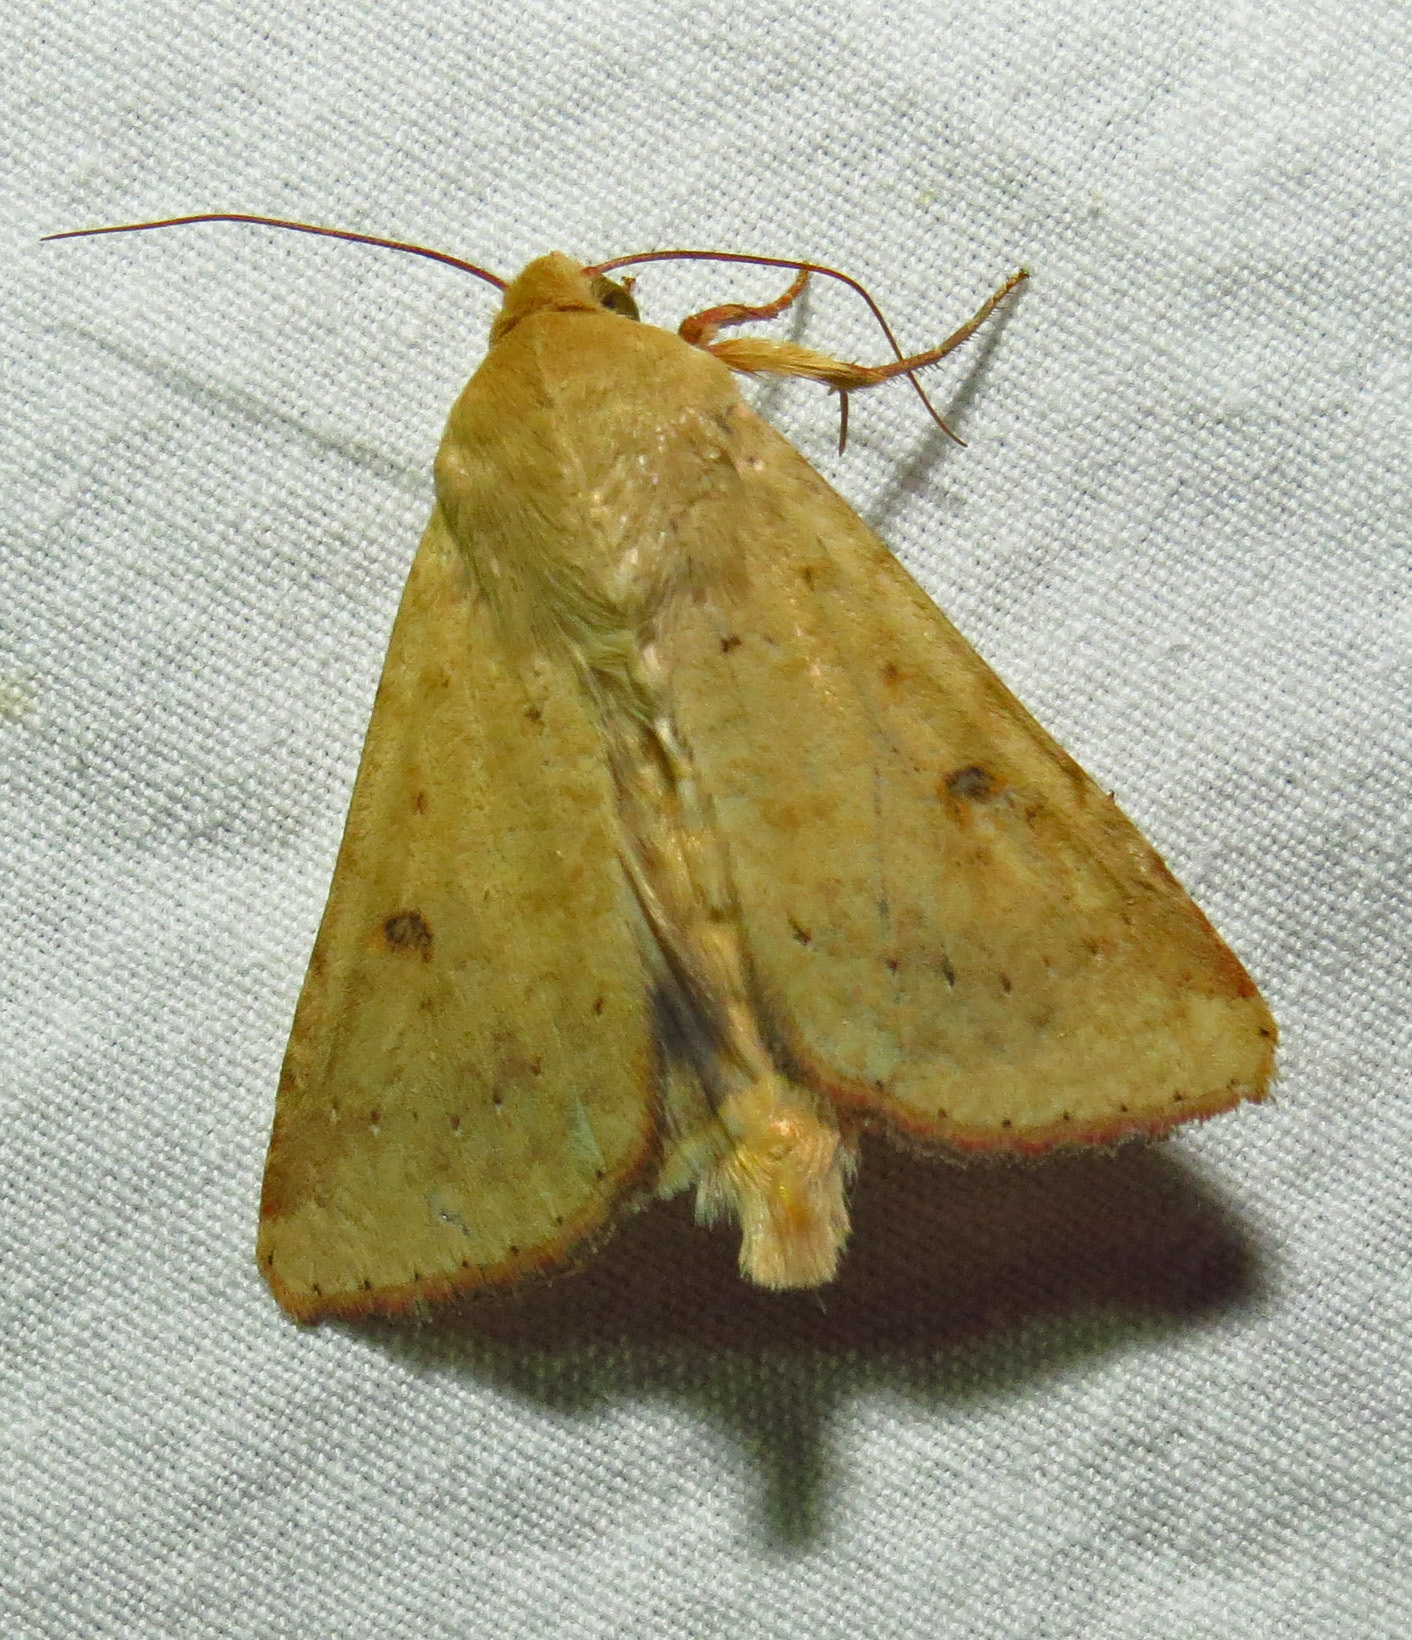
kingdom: Animalia
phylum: Arthropoda
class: Insecta
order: Lepidoptera
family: Noctuidae
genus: Helicoverpa
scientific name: Helicoverpa zea
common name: Bollworm
